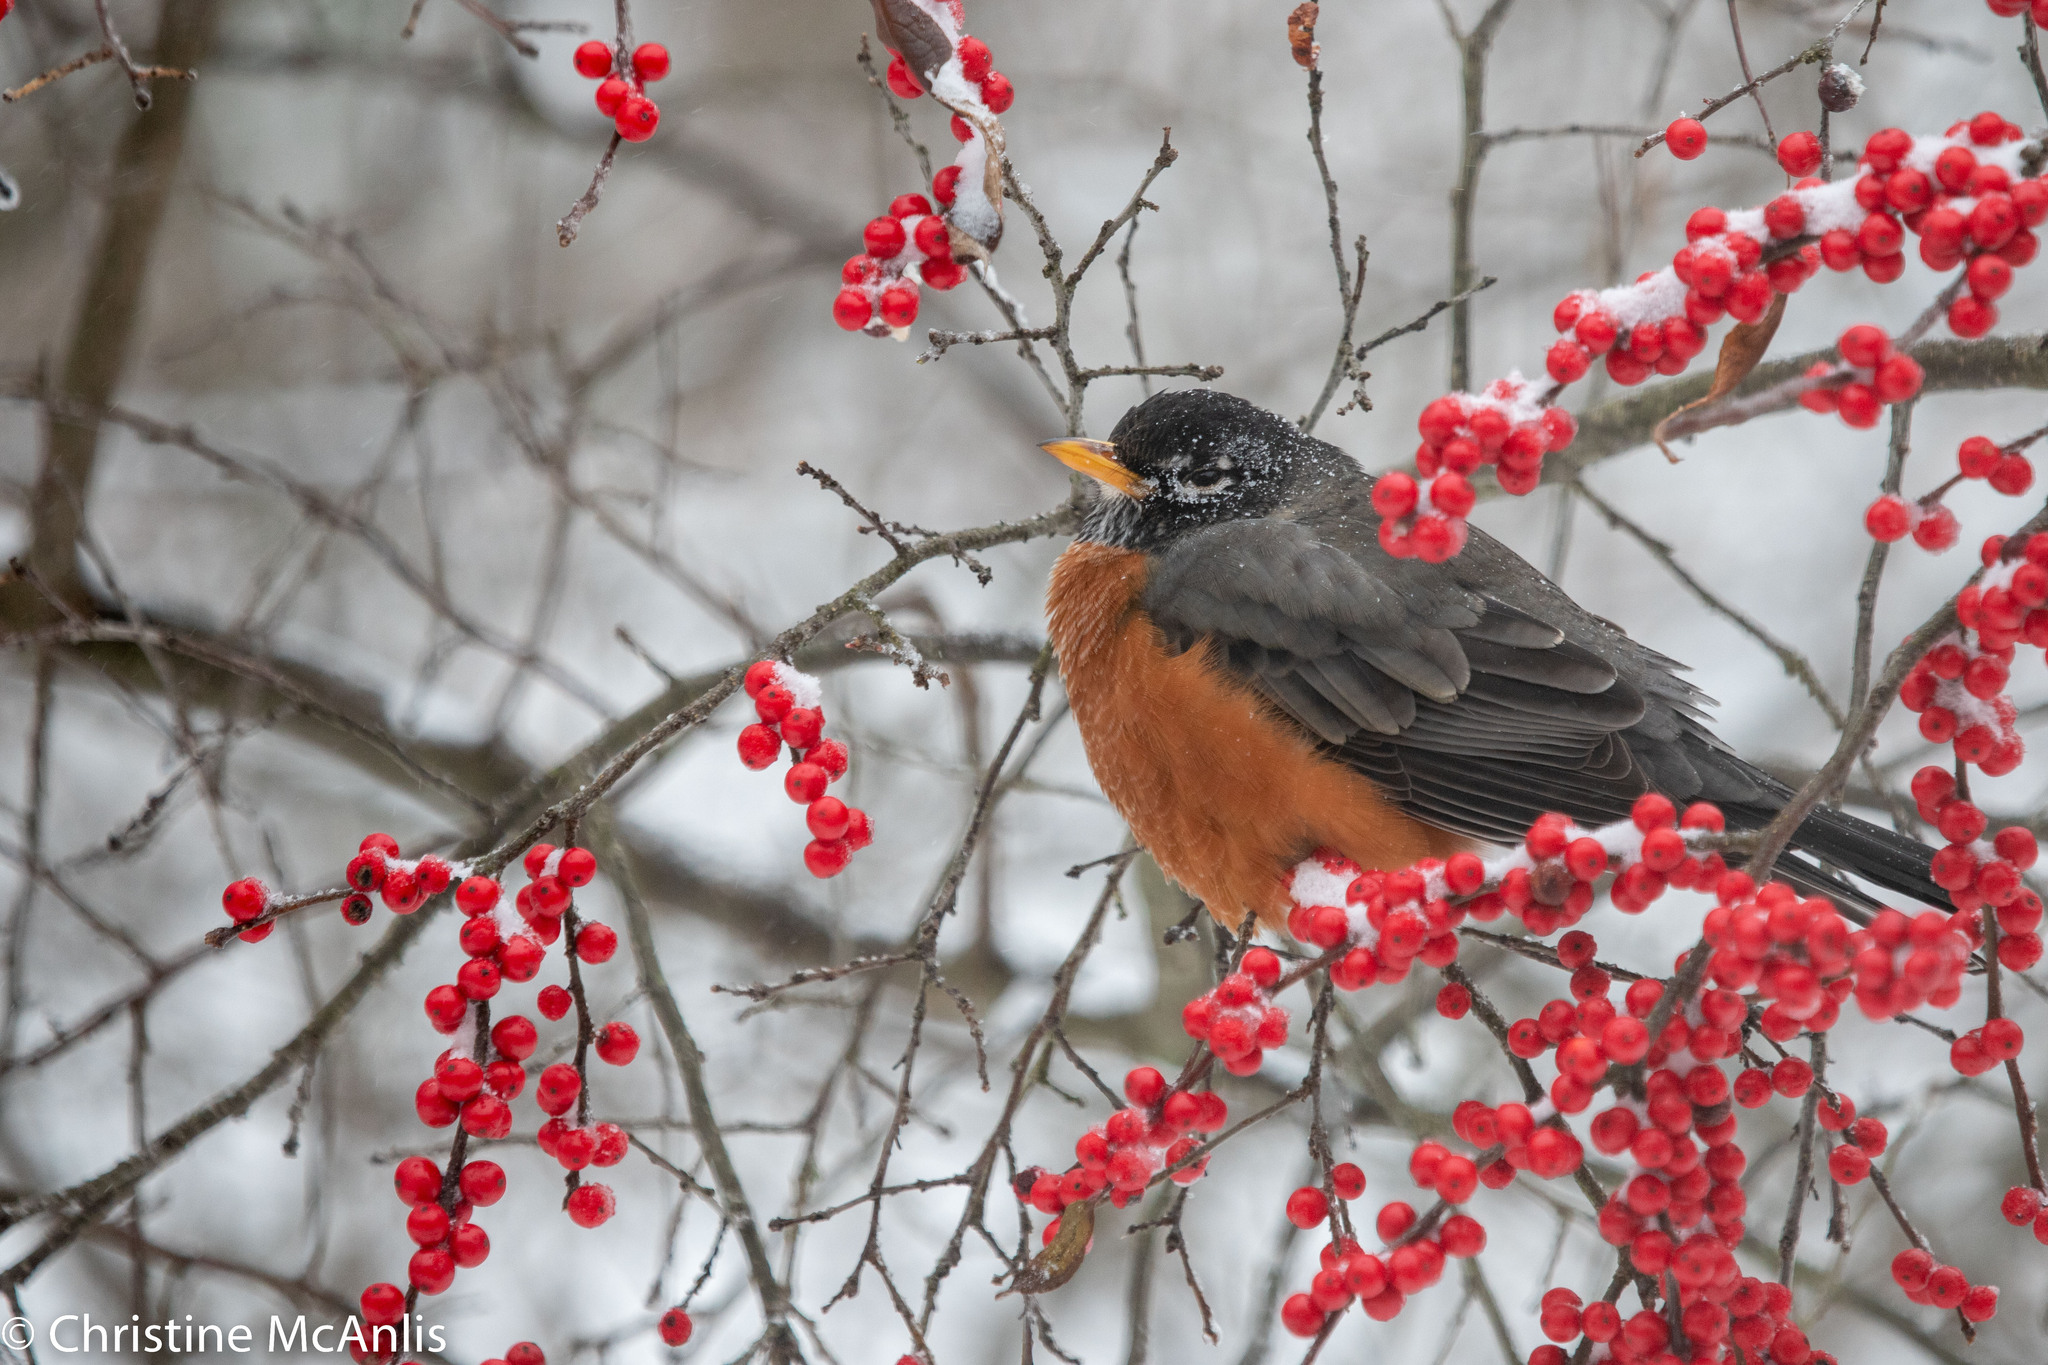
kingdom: Animalia
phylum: Chordata
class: Aves
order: Passeriformes
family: Turdidae
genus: Turdus
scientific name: Turdus migratorius
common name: American robin
